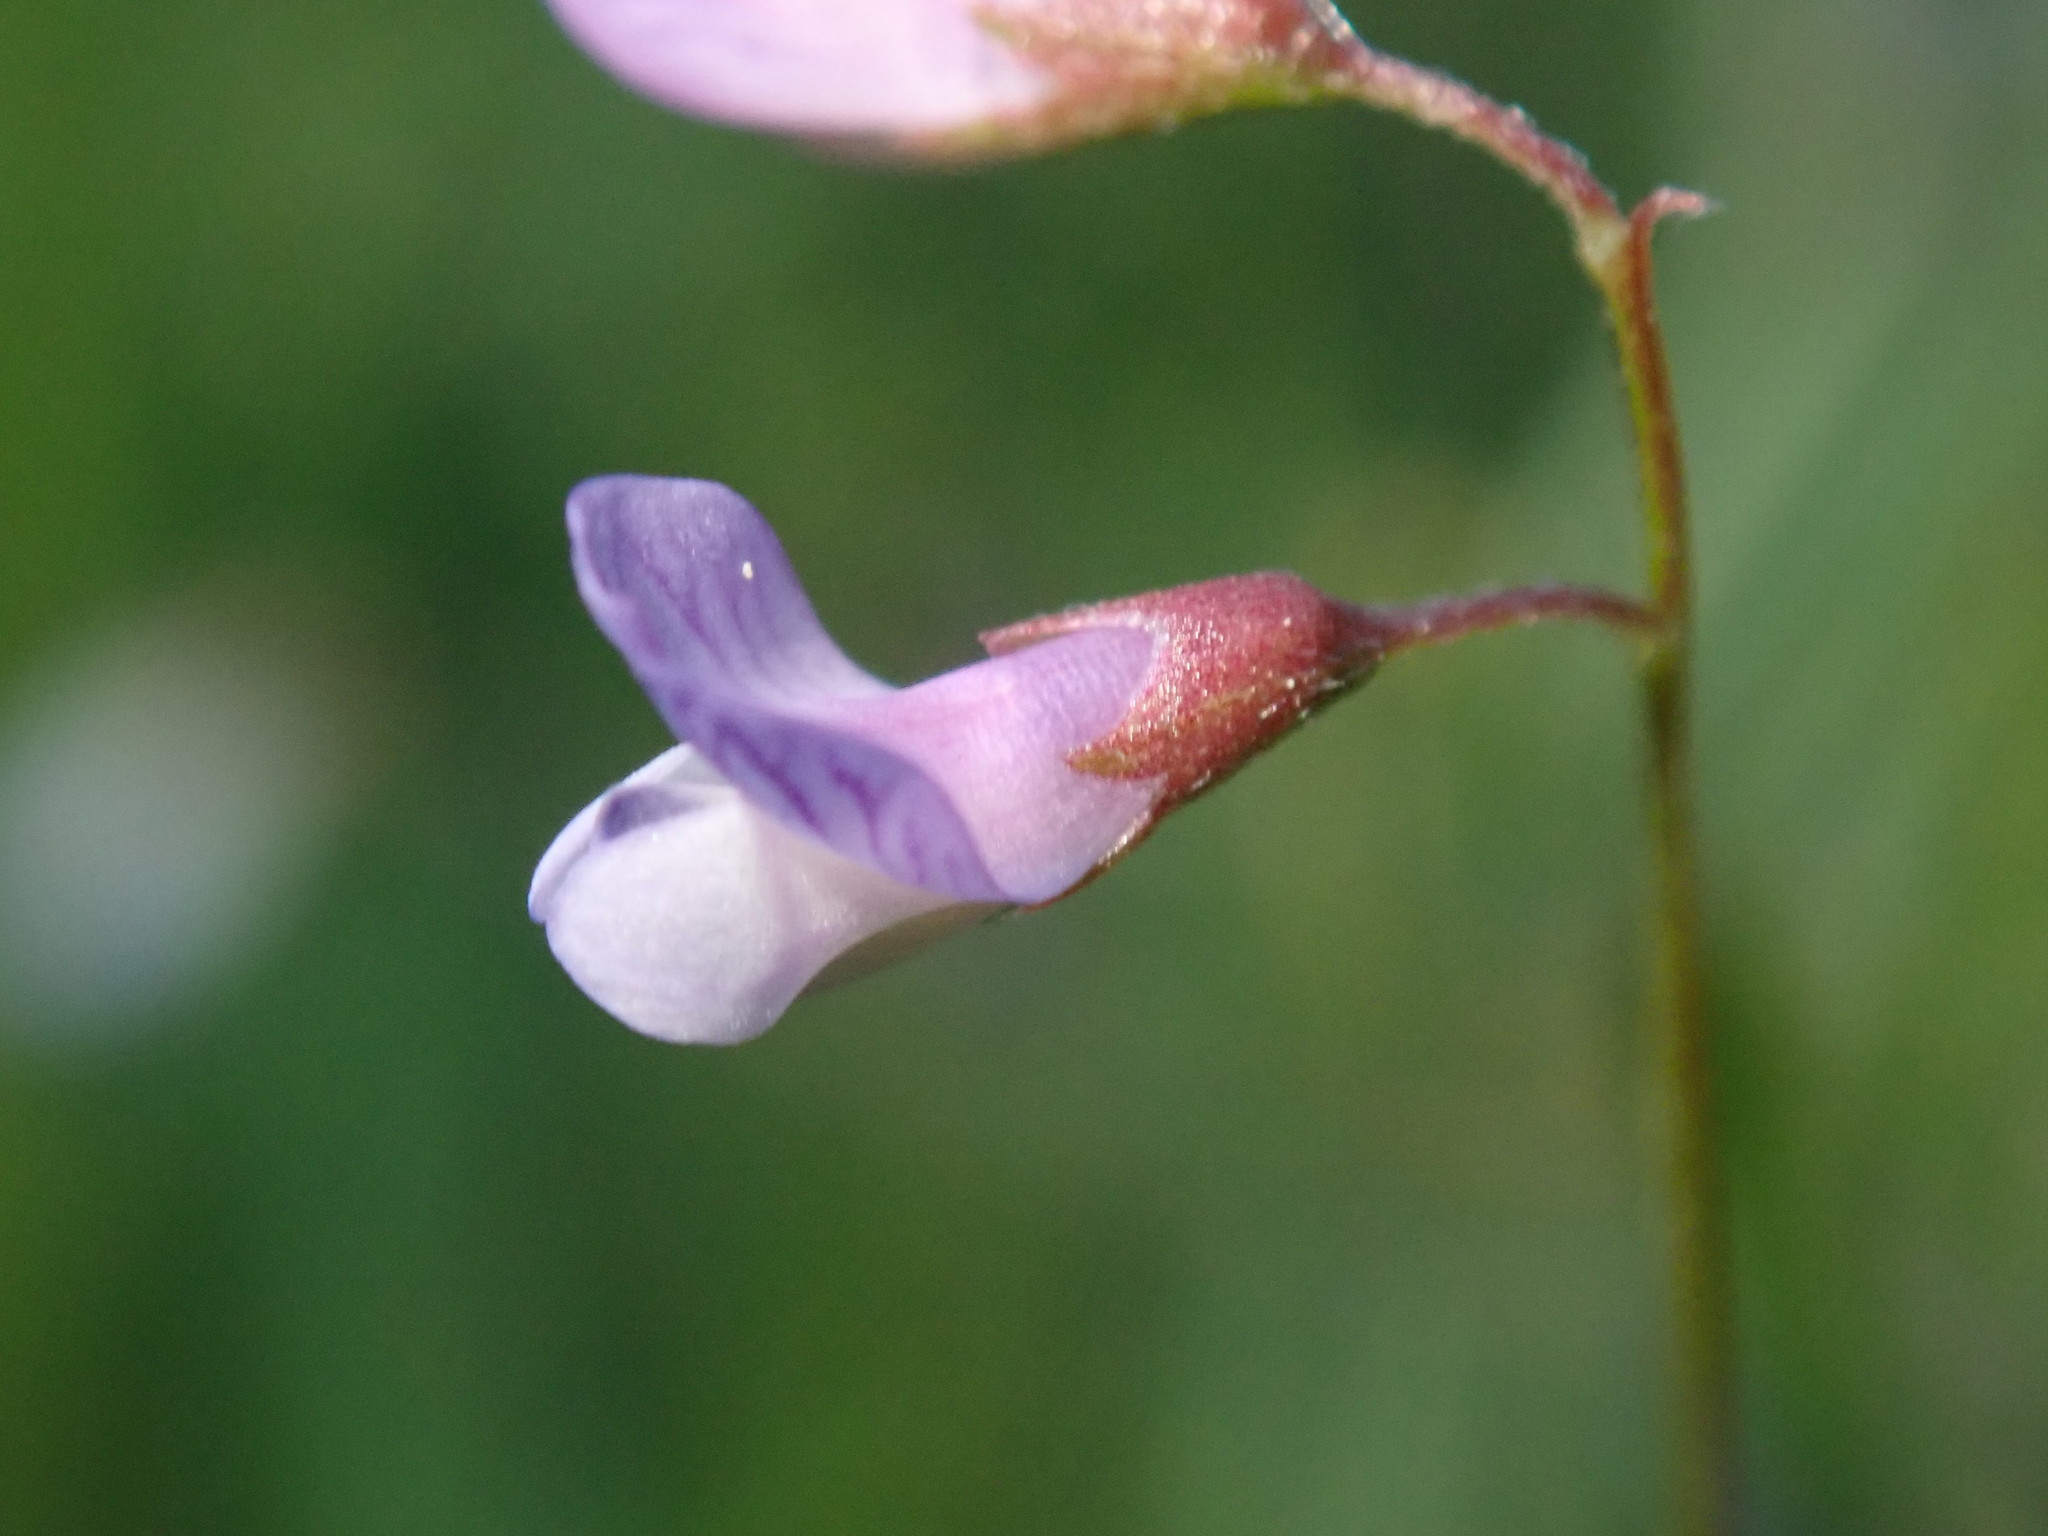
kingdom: Plantae
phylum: Tracheophyta
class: Magnoliopsida
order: Fabales
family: Fabaceae
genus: Vicia
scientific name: Vicia tetrasperma
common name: Smooth tare
